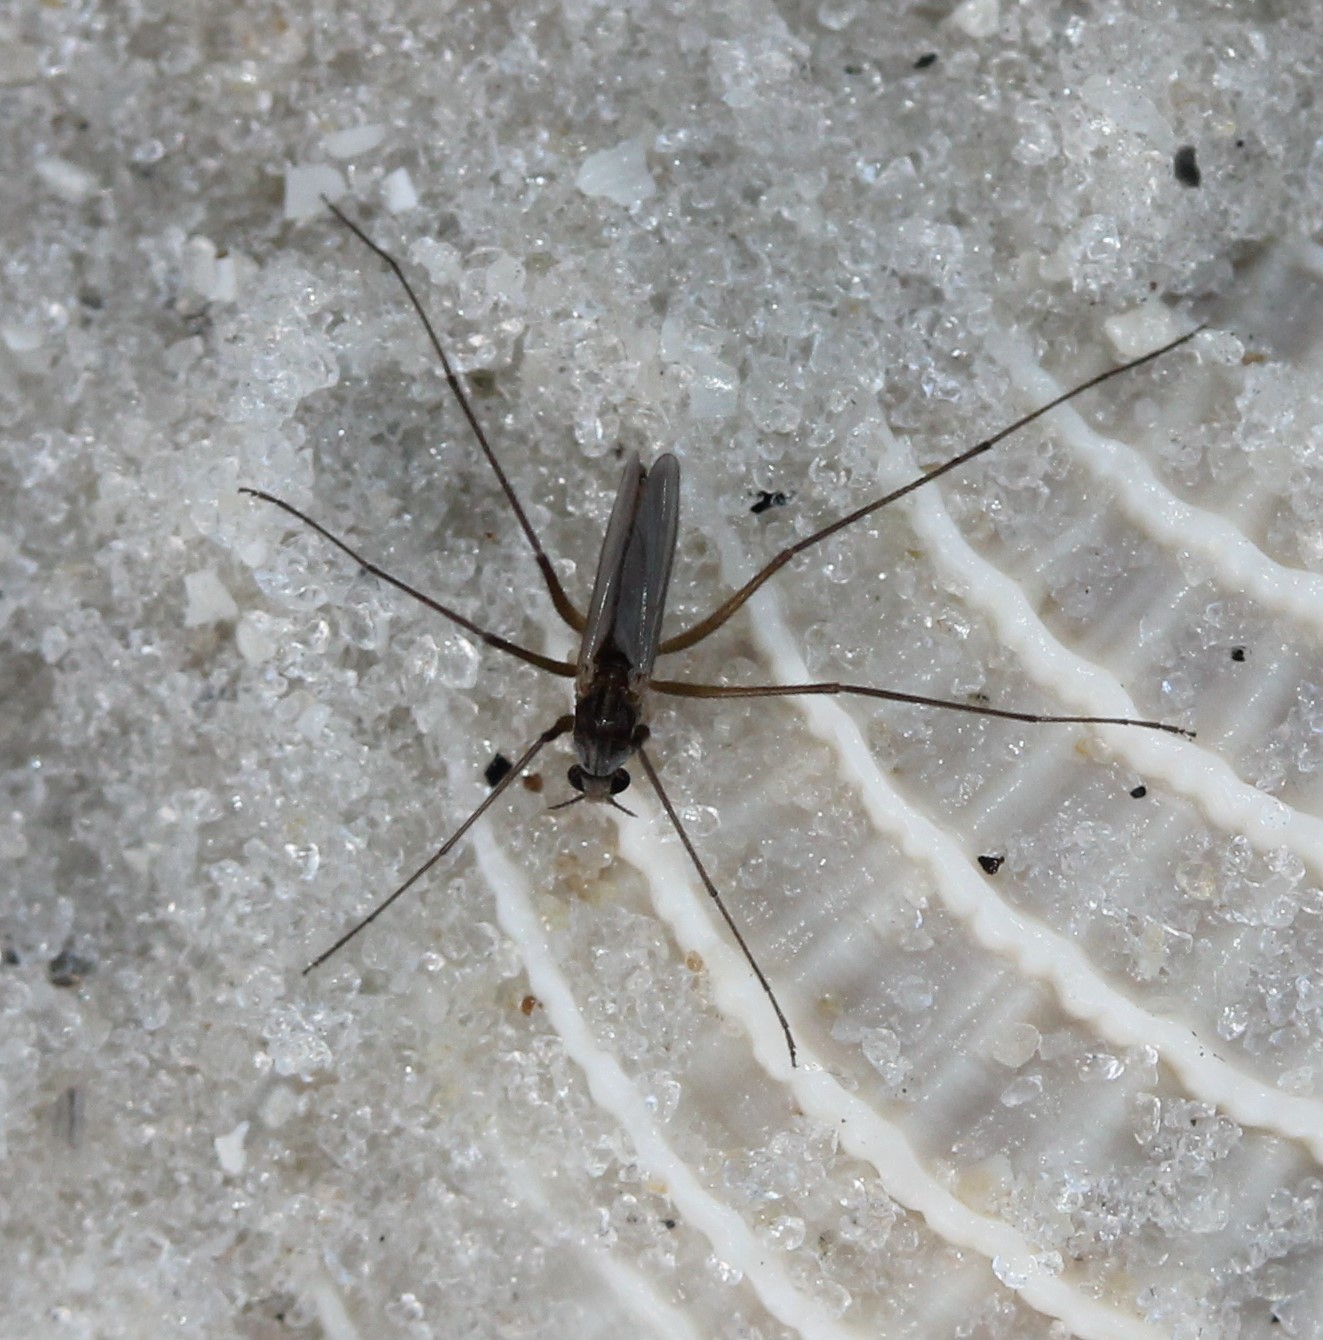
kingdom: Animalia
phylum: Arthropoda
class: Insecta
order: Diptera
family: Chironomidae
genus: Thalassomya
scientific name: Thalassomya bureni
